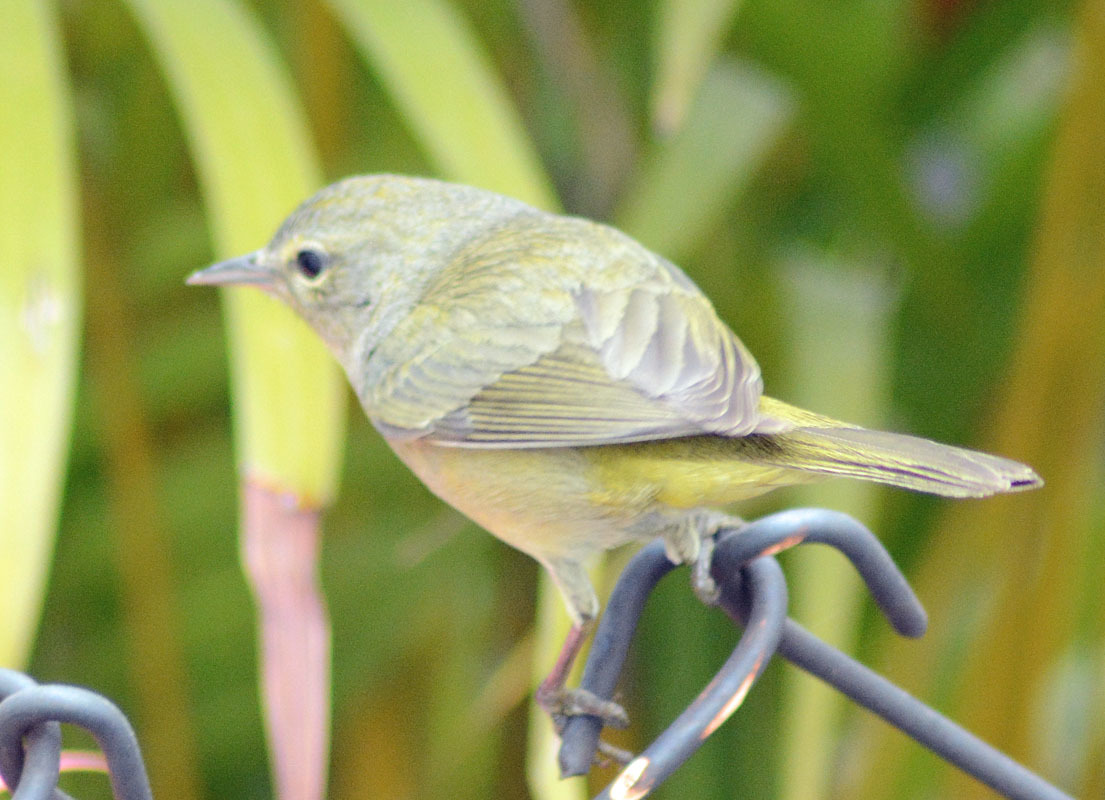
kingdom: Animalia
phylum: Chordata
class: Aves
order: Passeriformes
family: Parulidae
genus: Leiothlypis
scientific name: Leiothlypis celata
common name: Orange-crowned warbler
